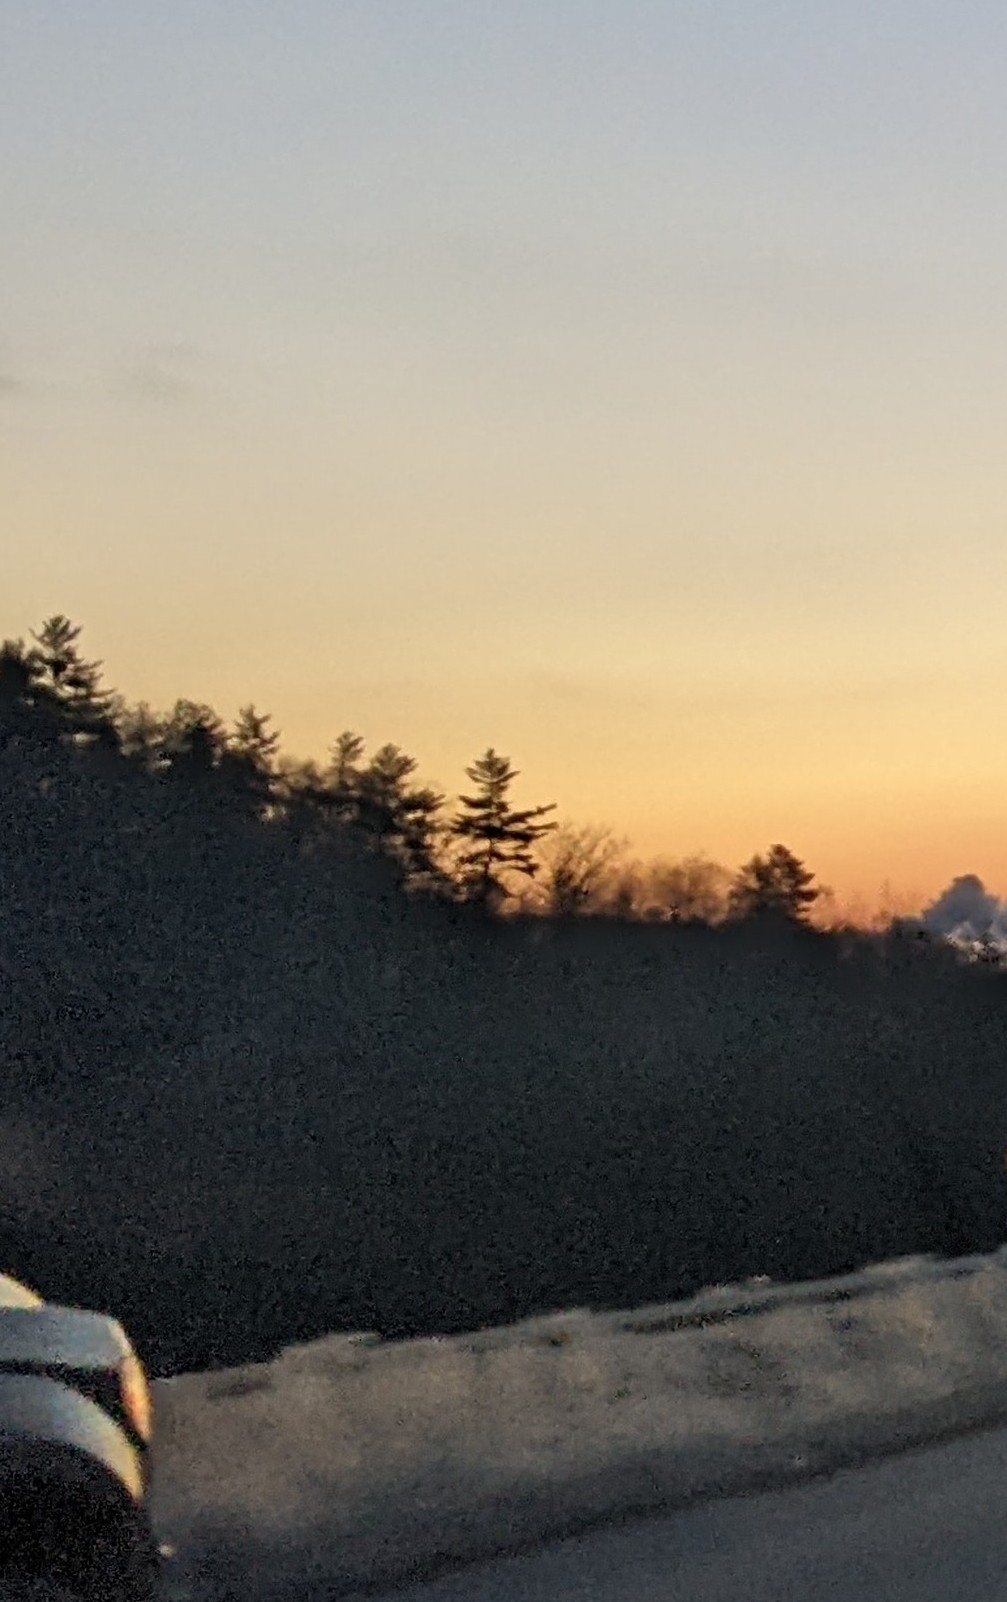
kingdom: Plantae
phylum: Tracheophyta
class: Pinopsida
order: Pinales
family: Pinaceae
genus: Pinus
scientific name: Pinus strobus
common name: Weymouth pine
